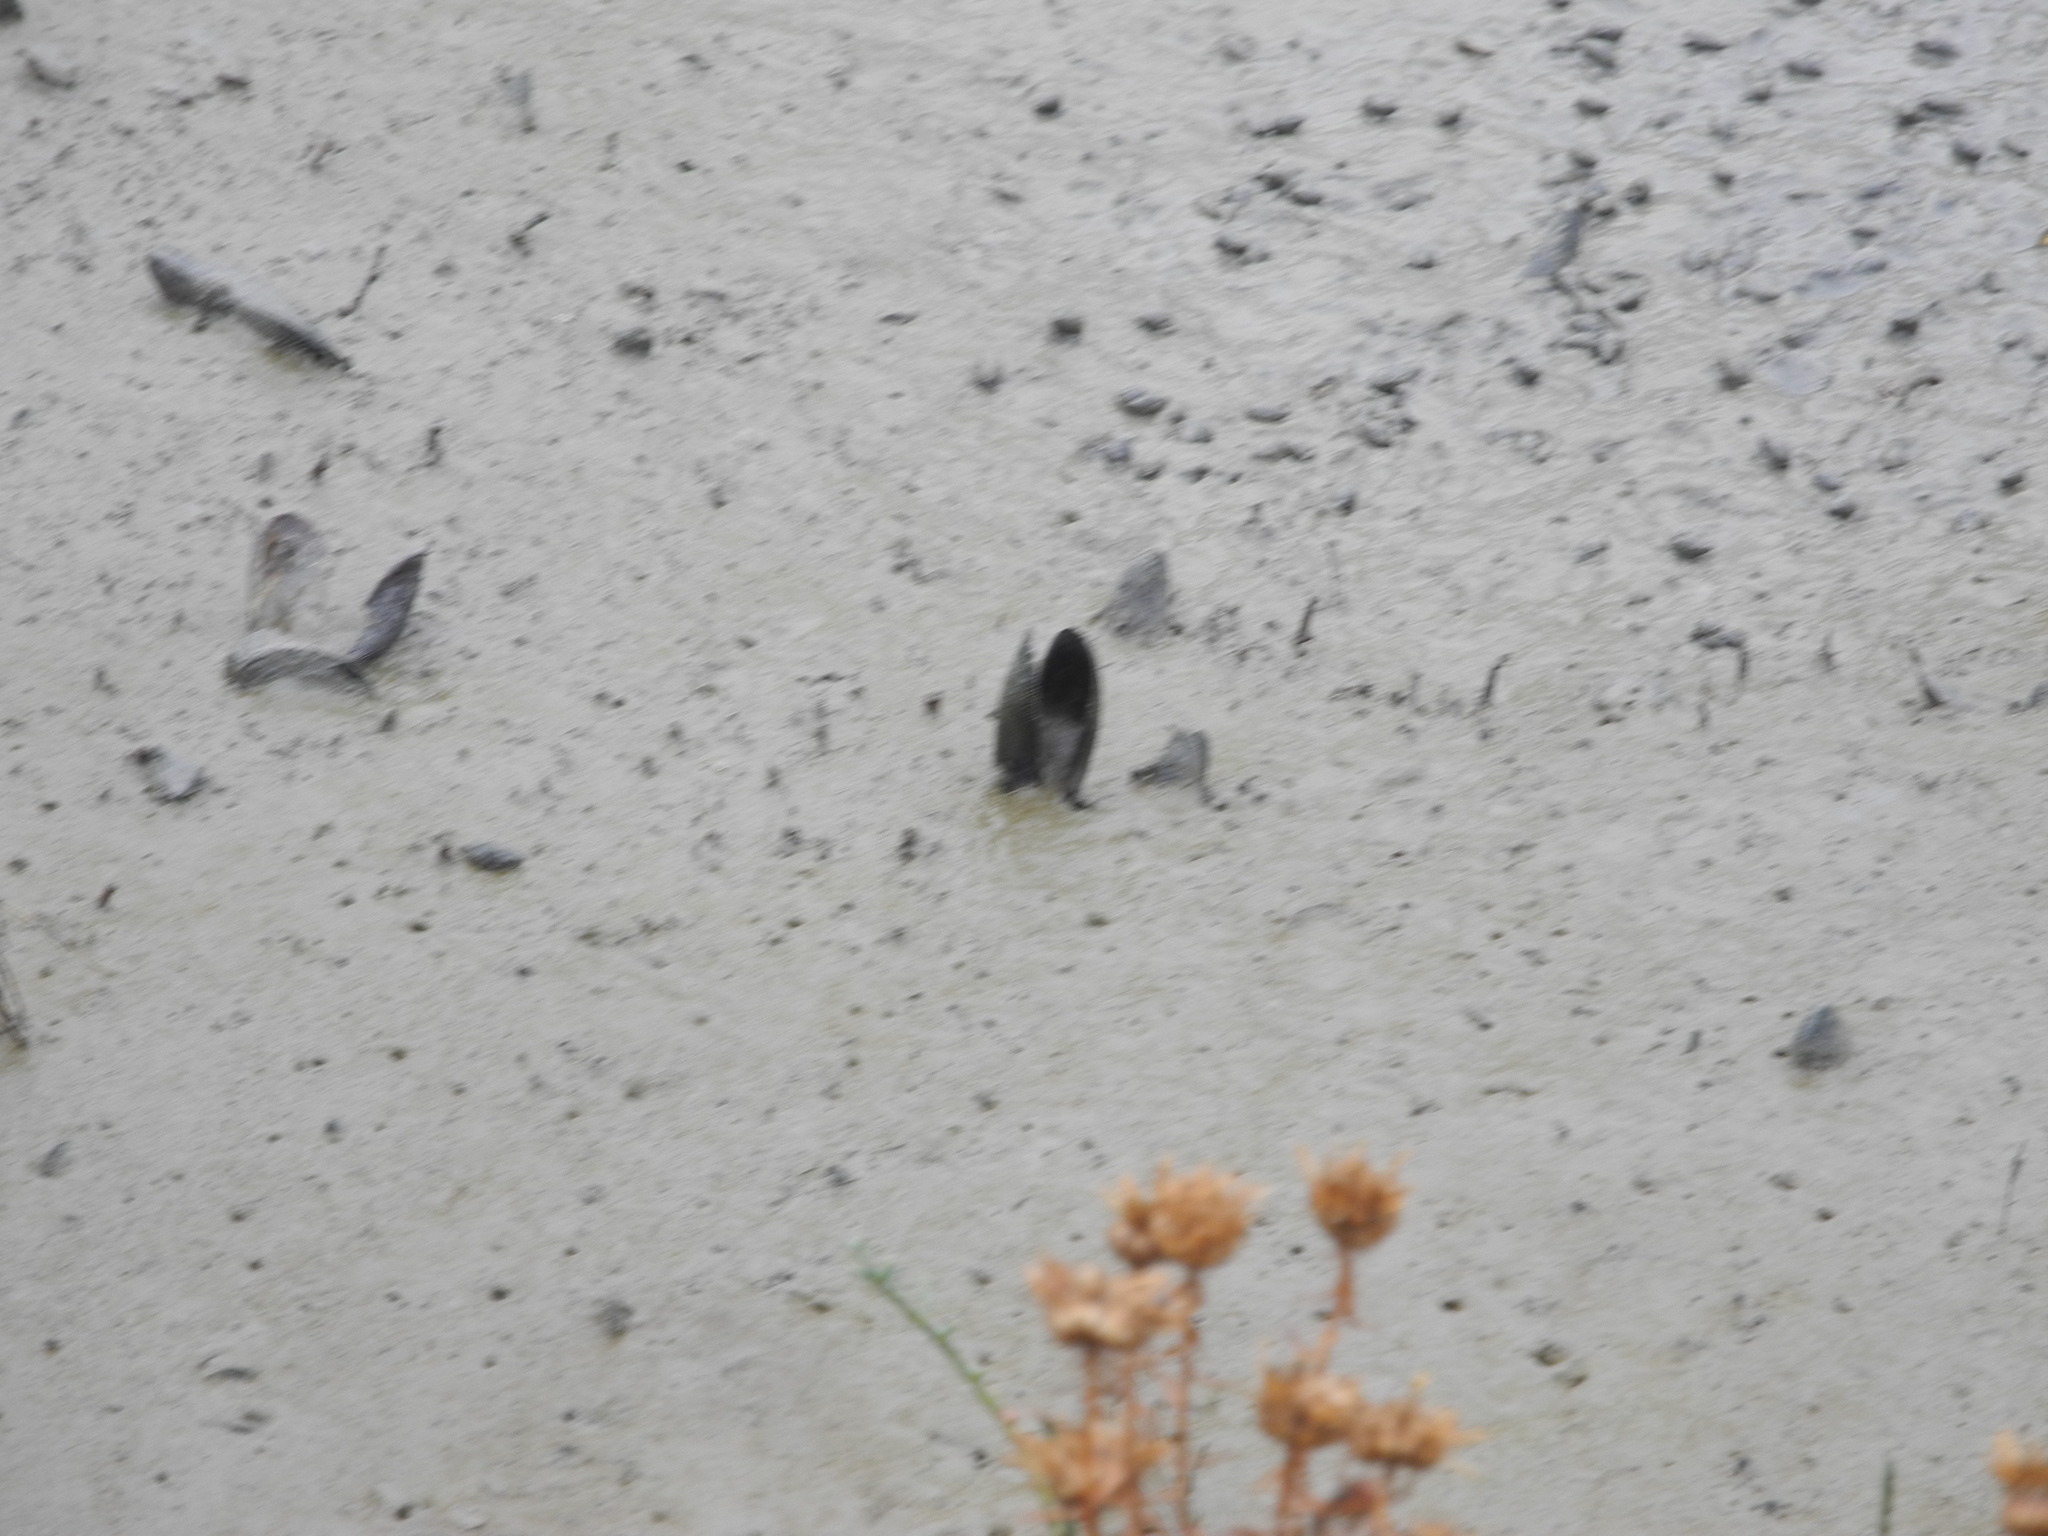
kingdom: Animalia
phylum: Mollusca
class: Bivalvia
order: Mytilida
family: Mytilidae
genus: Geukensia
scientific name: Geukensia demissa
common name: Ribbed mussel
